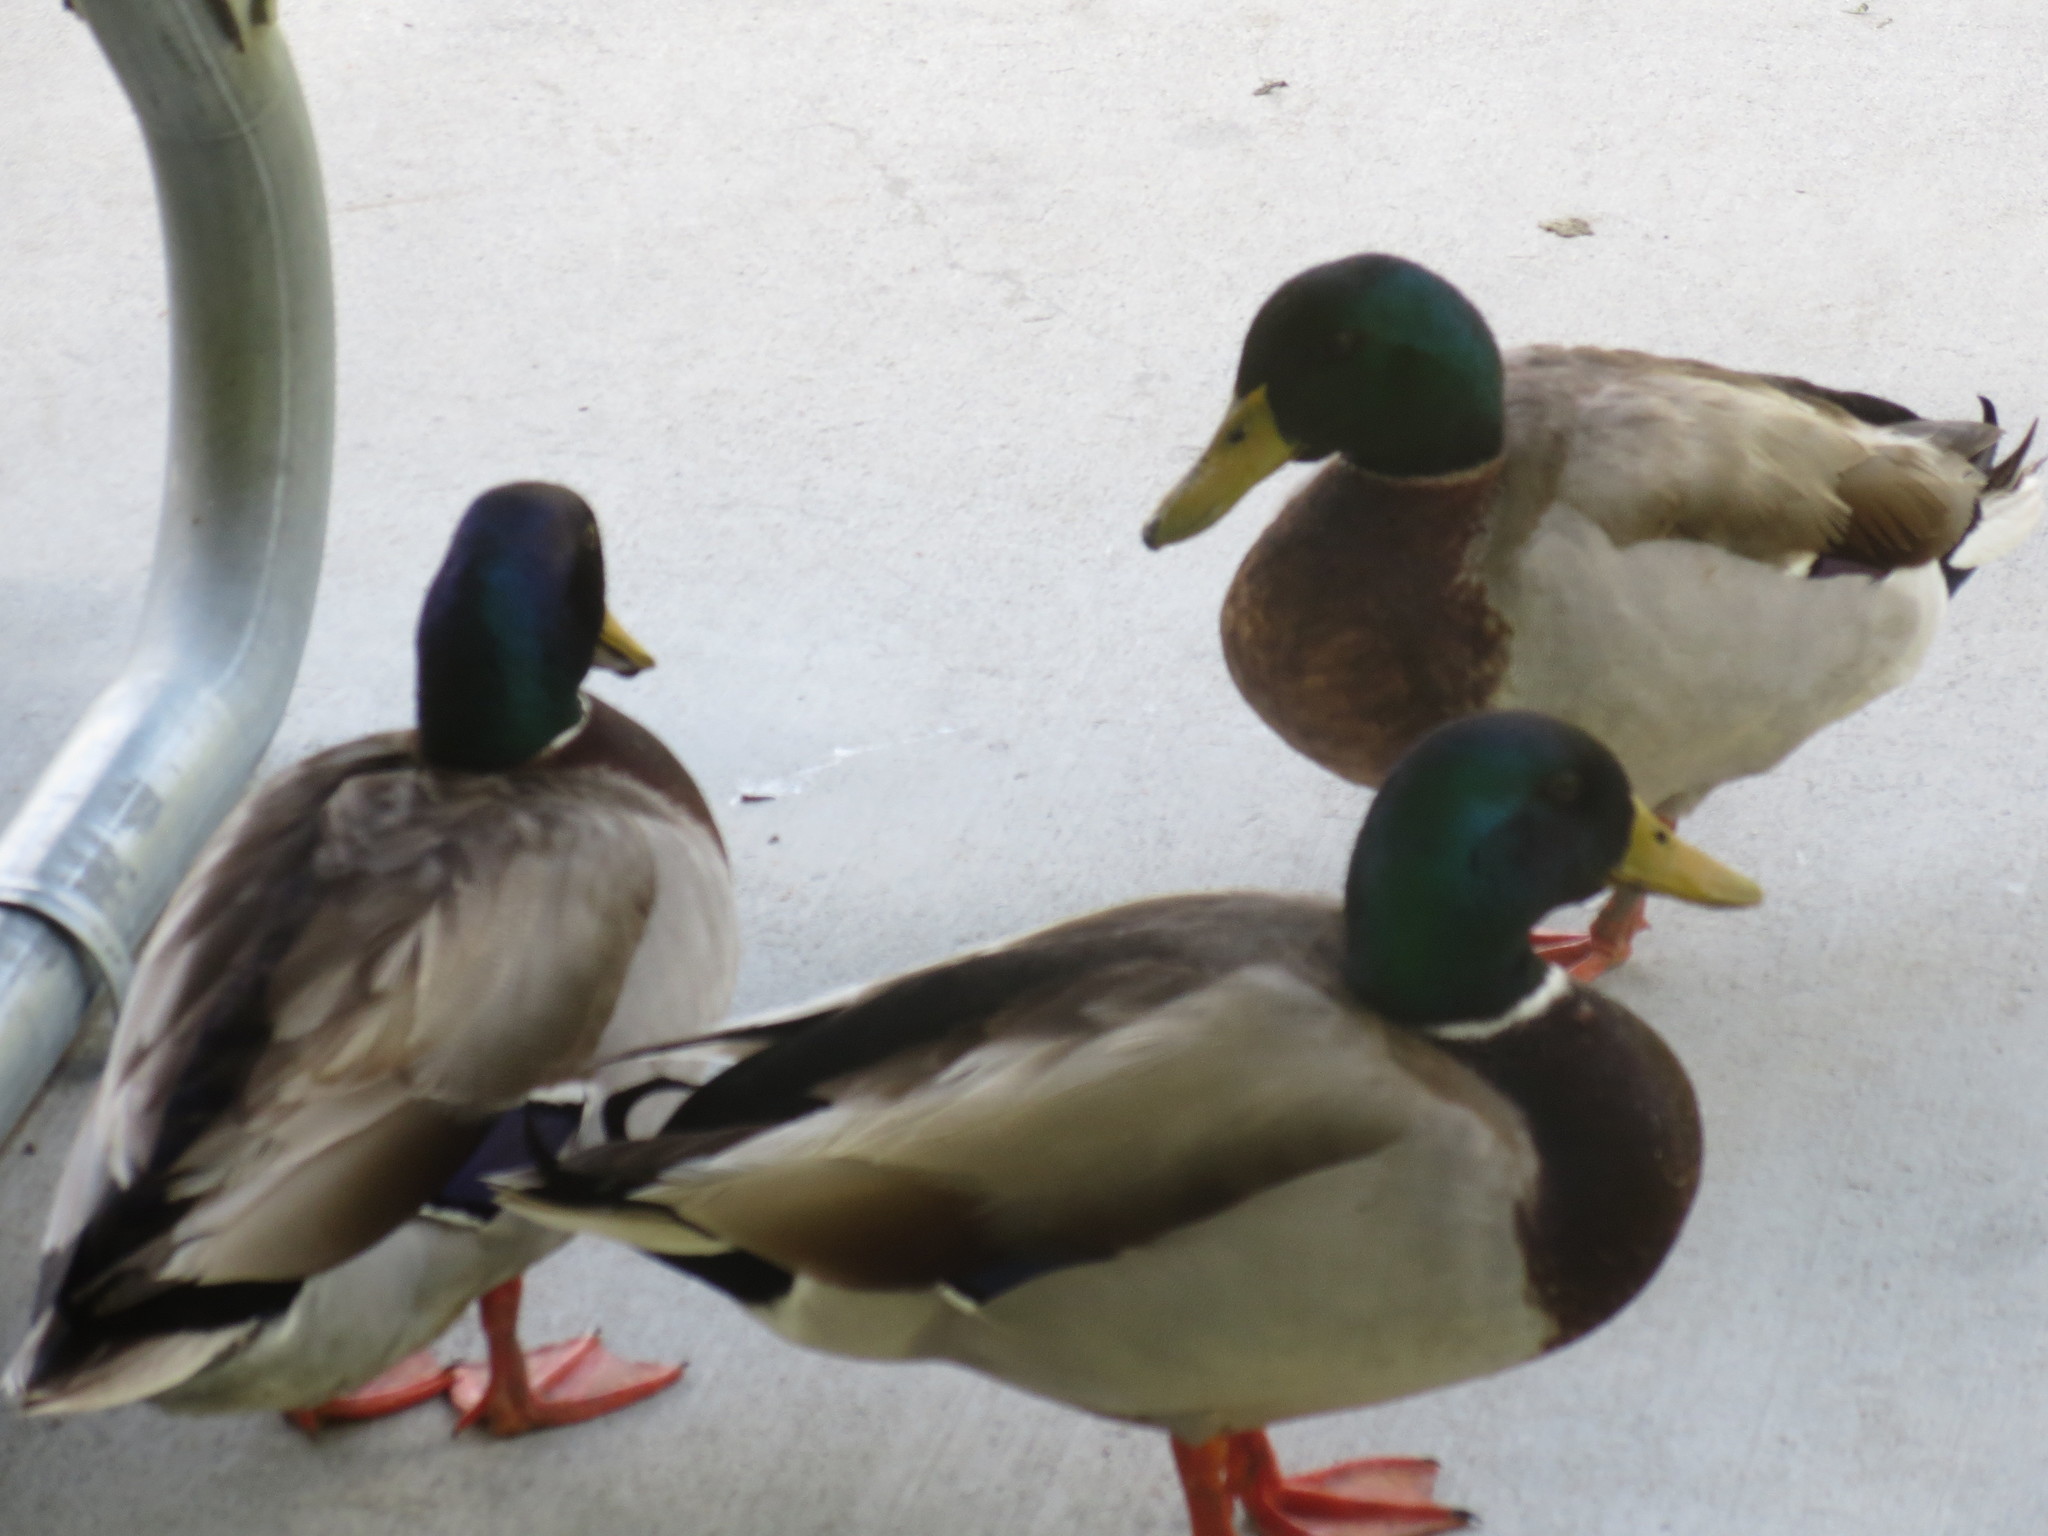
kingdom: Animalia
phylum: Chordata
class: Aves
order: Anseriformes
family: Anatidae
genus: Anas
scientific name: Anas platyrhynchos
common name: Mallard
